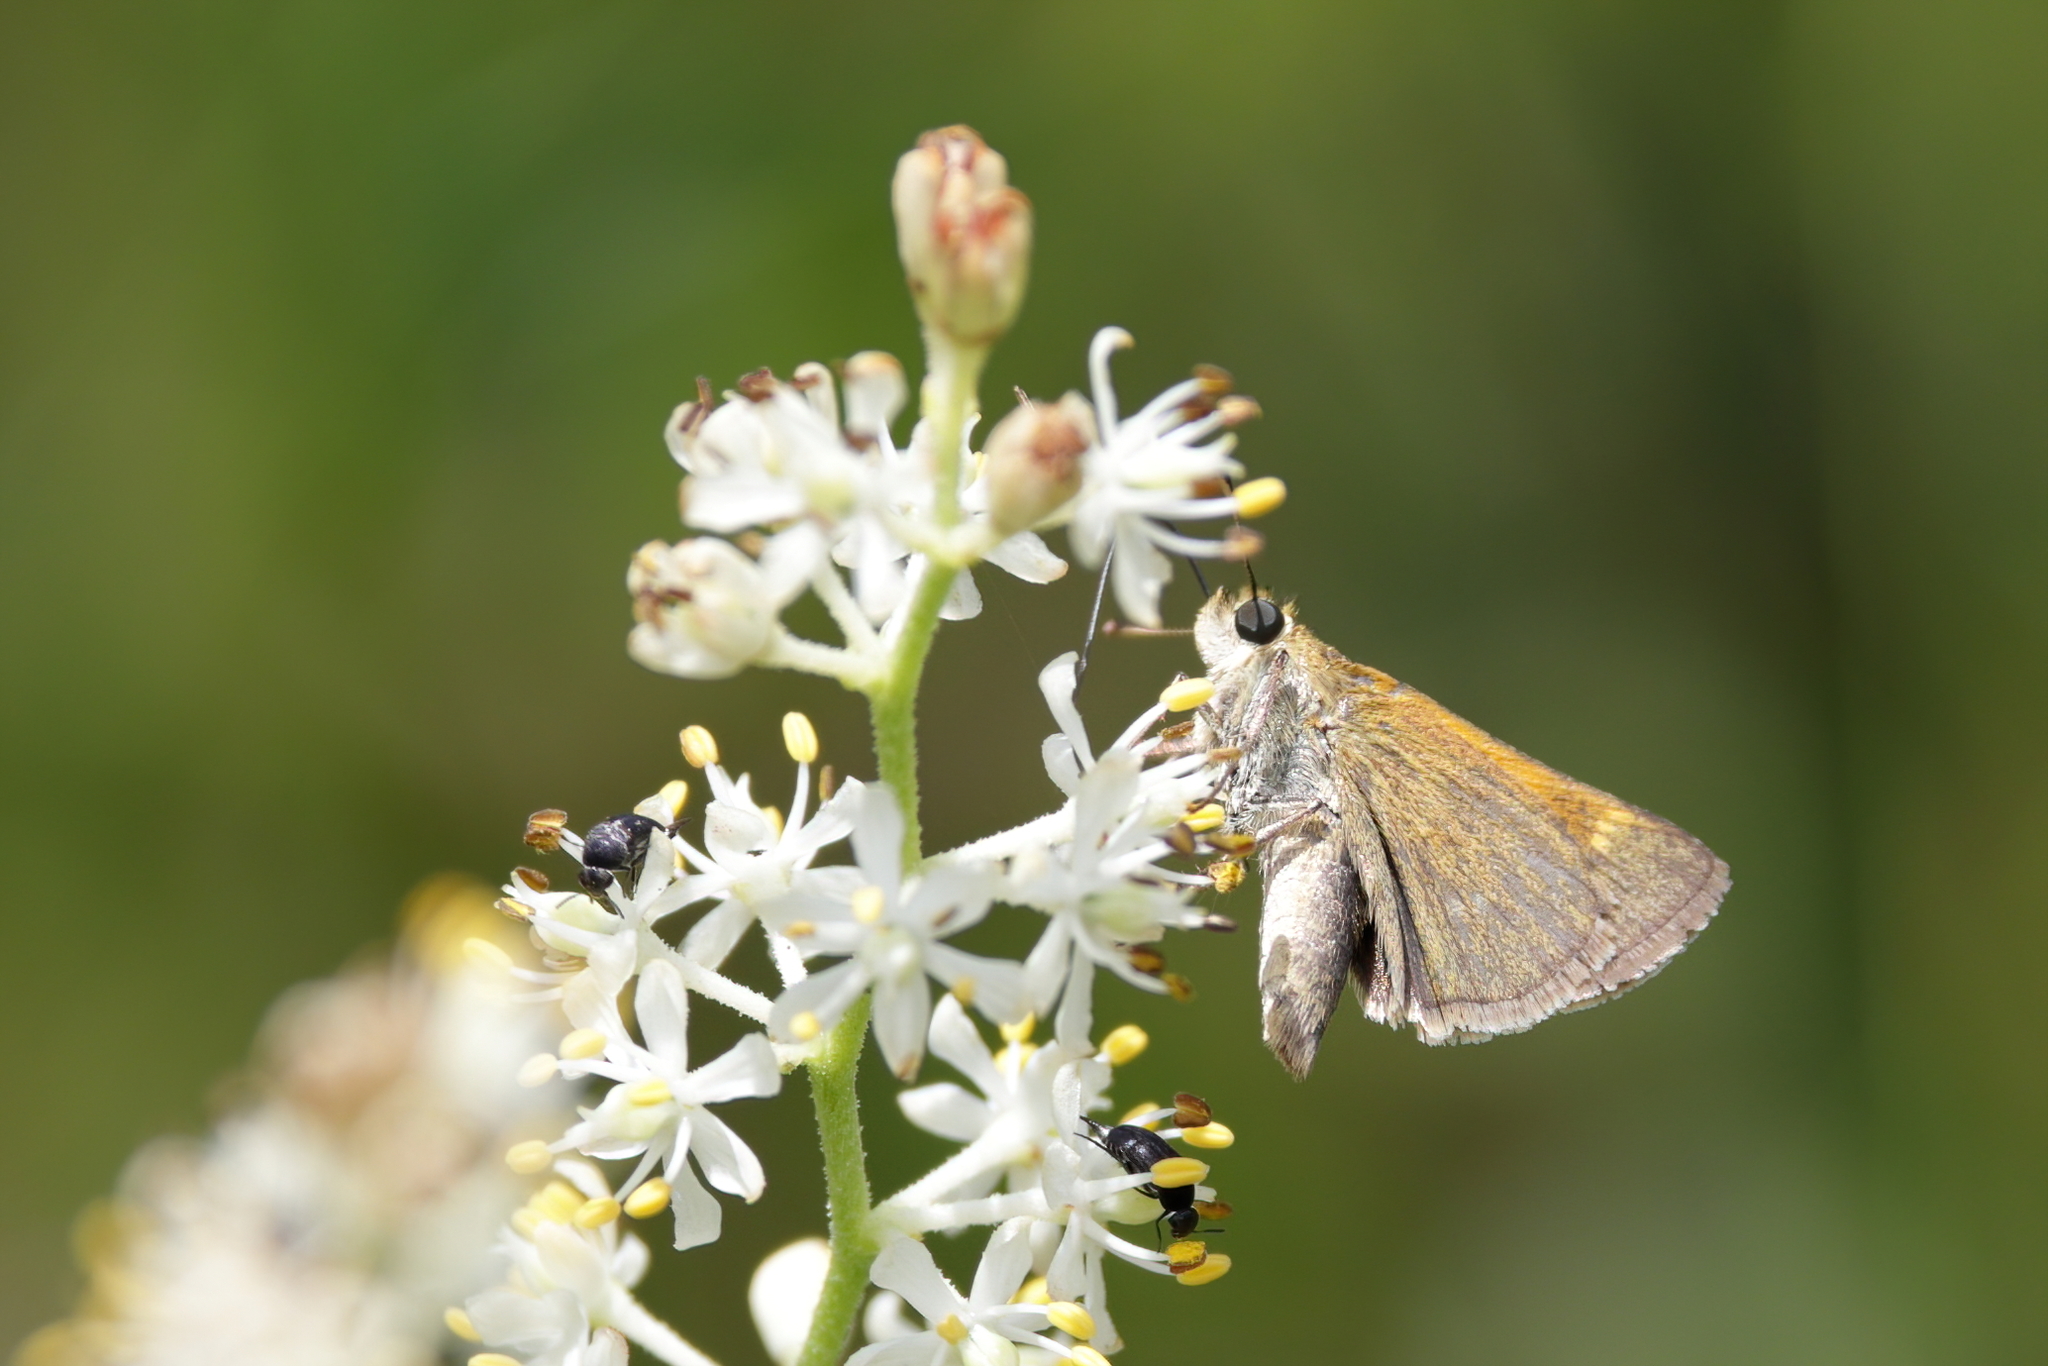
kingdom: Animalia
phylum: Arthropoda
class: Insecta
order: Lepidoptera
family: Hesperiidae
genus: Polites
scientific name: Polites themistocles
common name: Tawny-edged skipper
